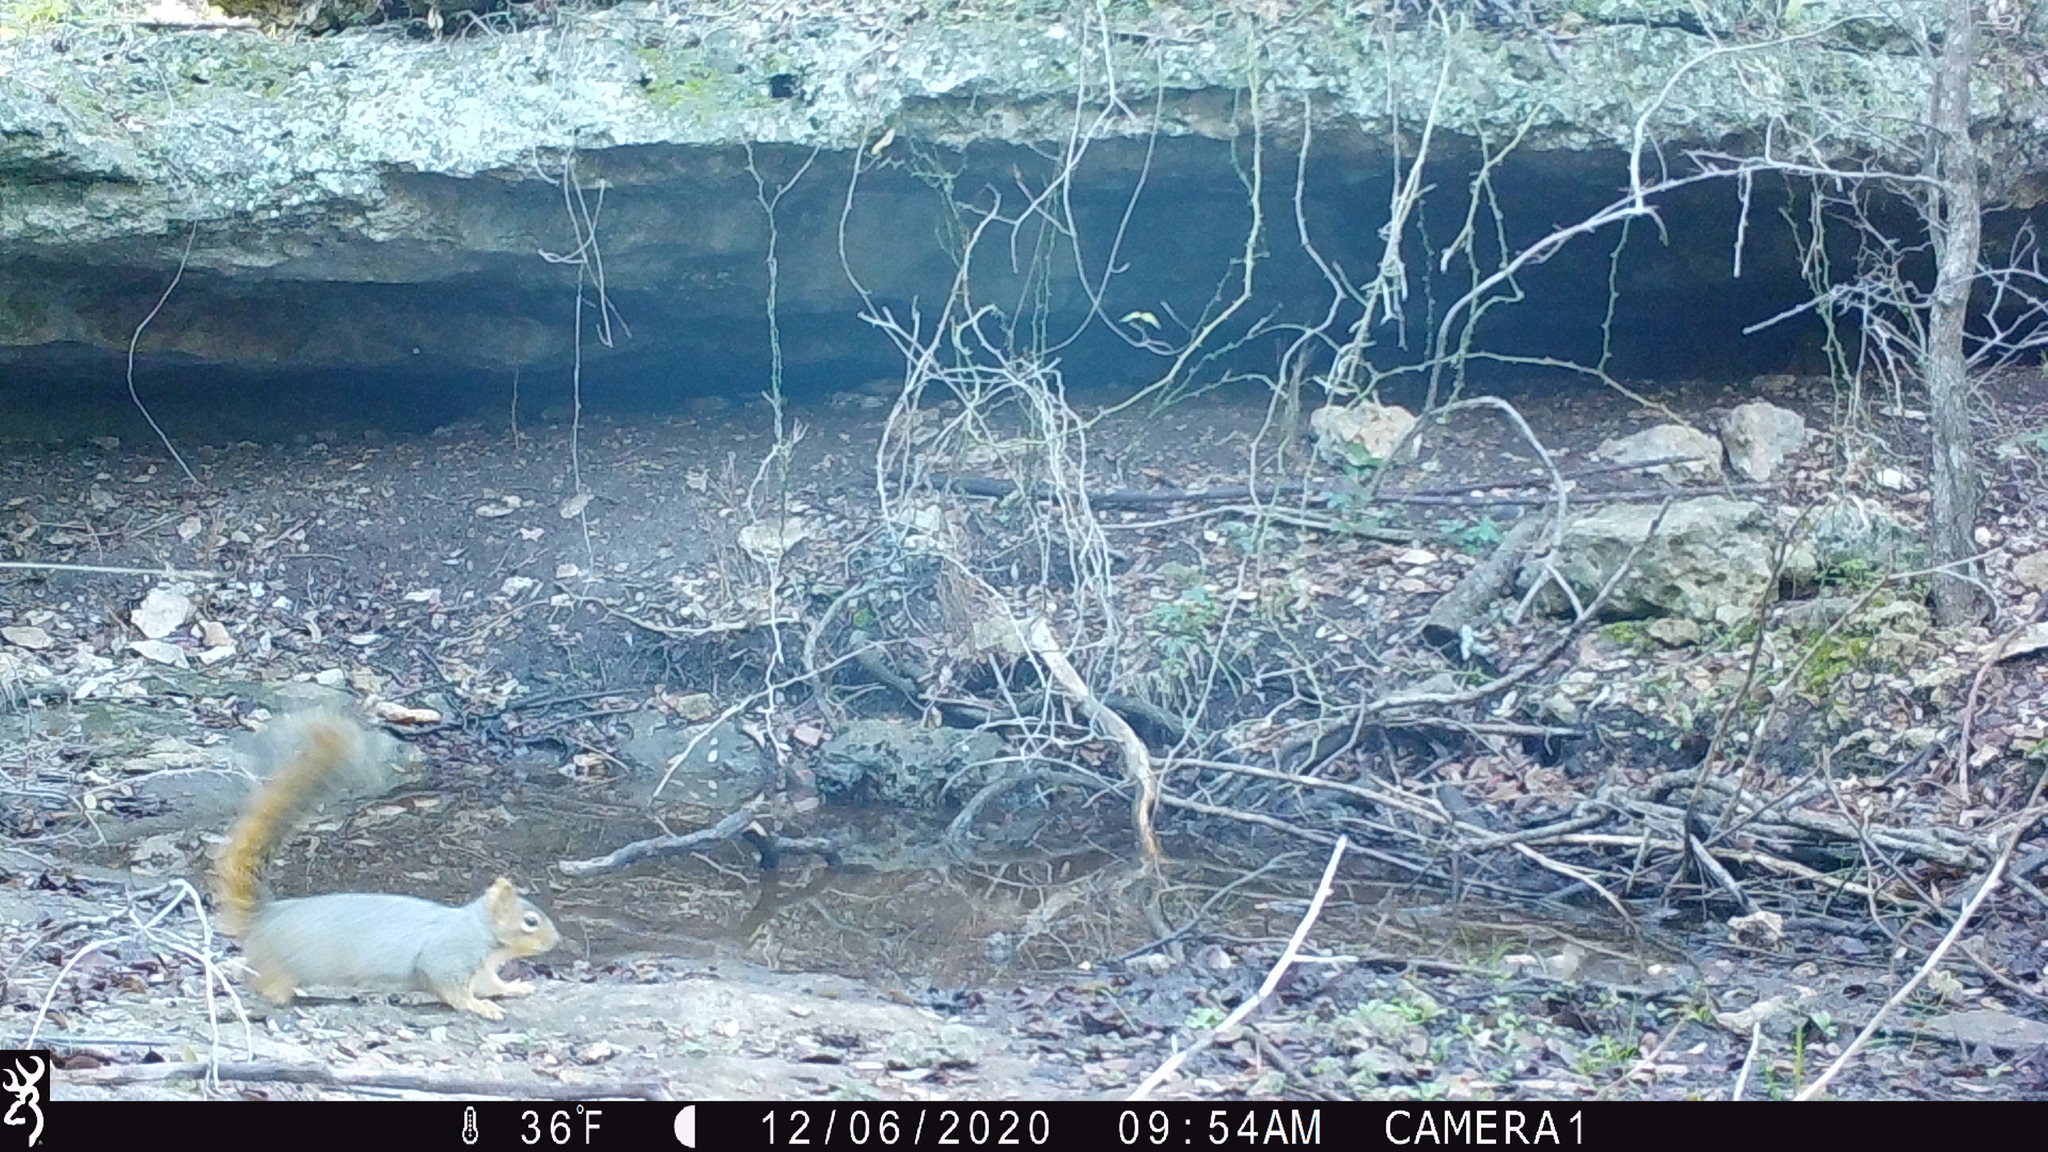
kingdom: Animalia
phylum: Chordata
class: Mammalia
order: Rodentia
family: Sciuridae
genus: Sciurus
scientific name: Sciurus niger
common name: Fox squirrel
